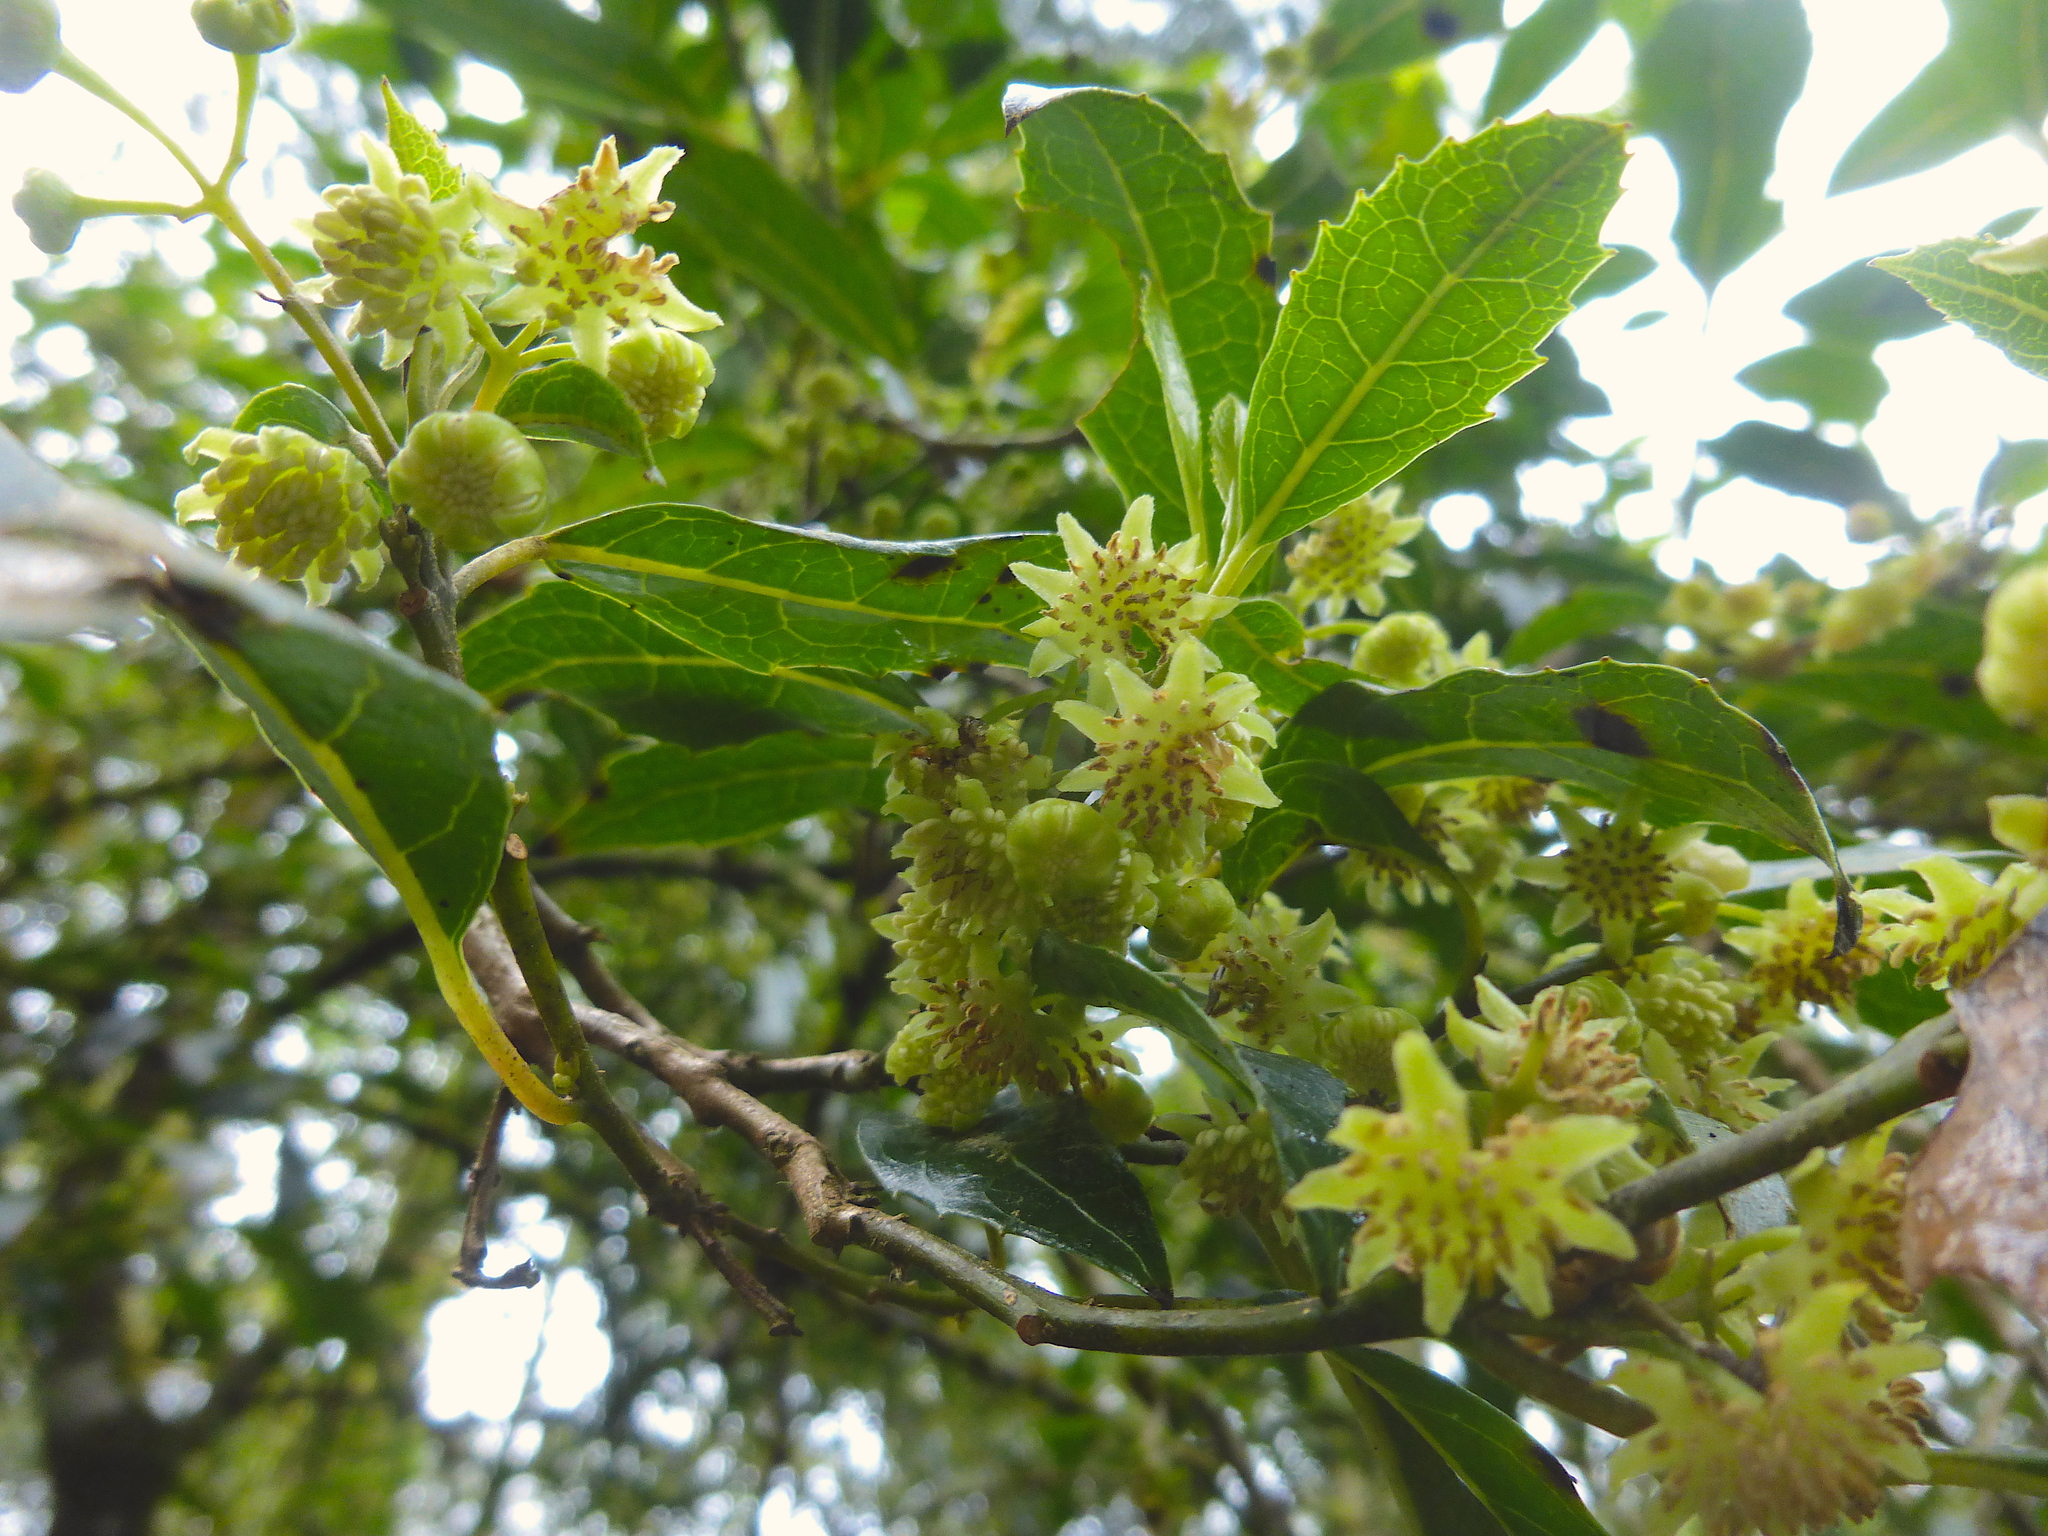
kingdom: Plantae
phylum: Tracheophyta
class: Magnoliopsida
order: Laurales
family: Monimiaceae
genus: Hedycarya
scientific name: Hedycarya angustifolia
